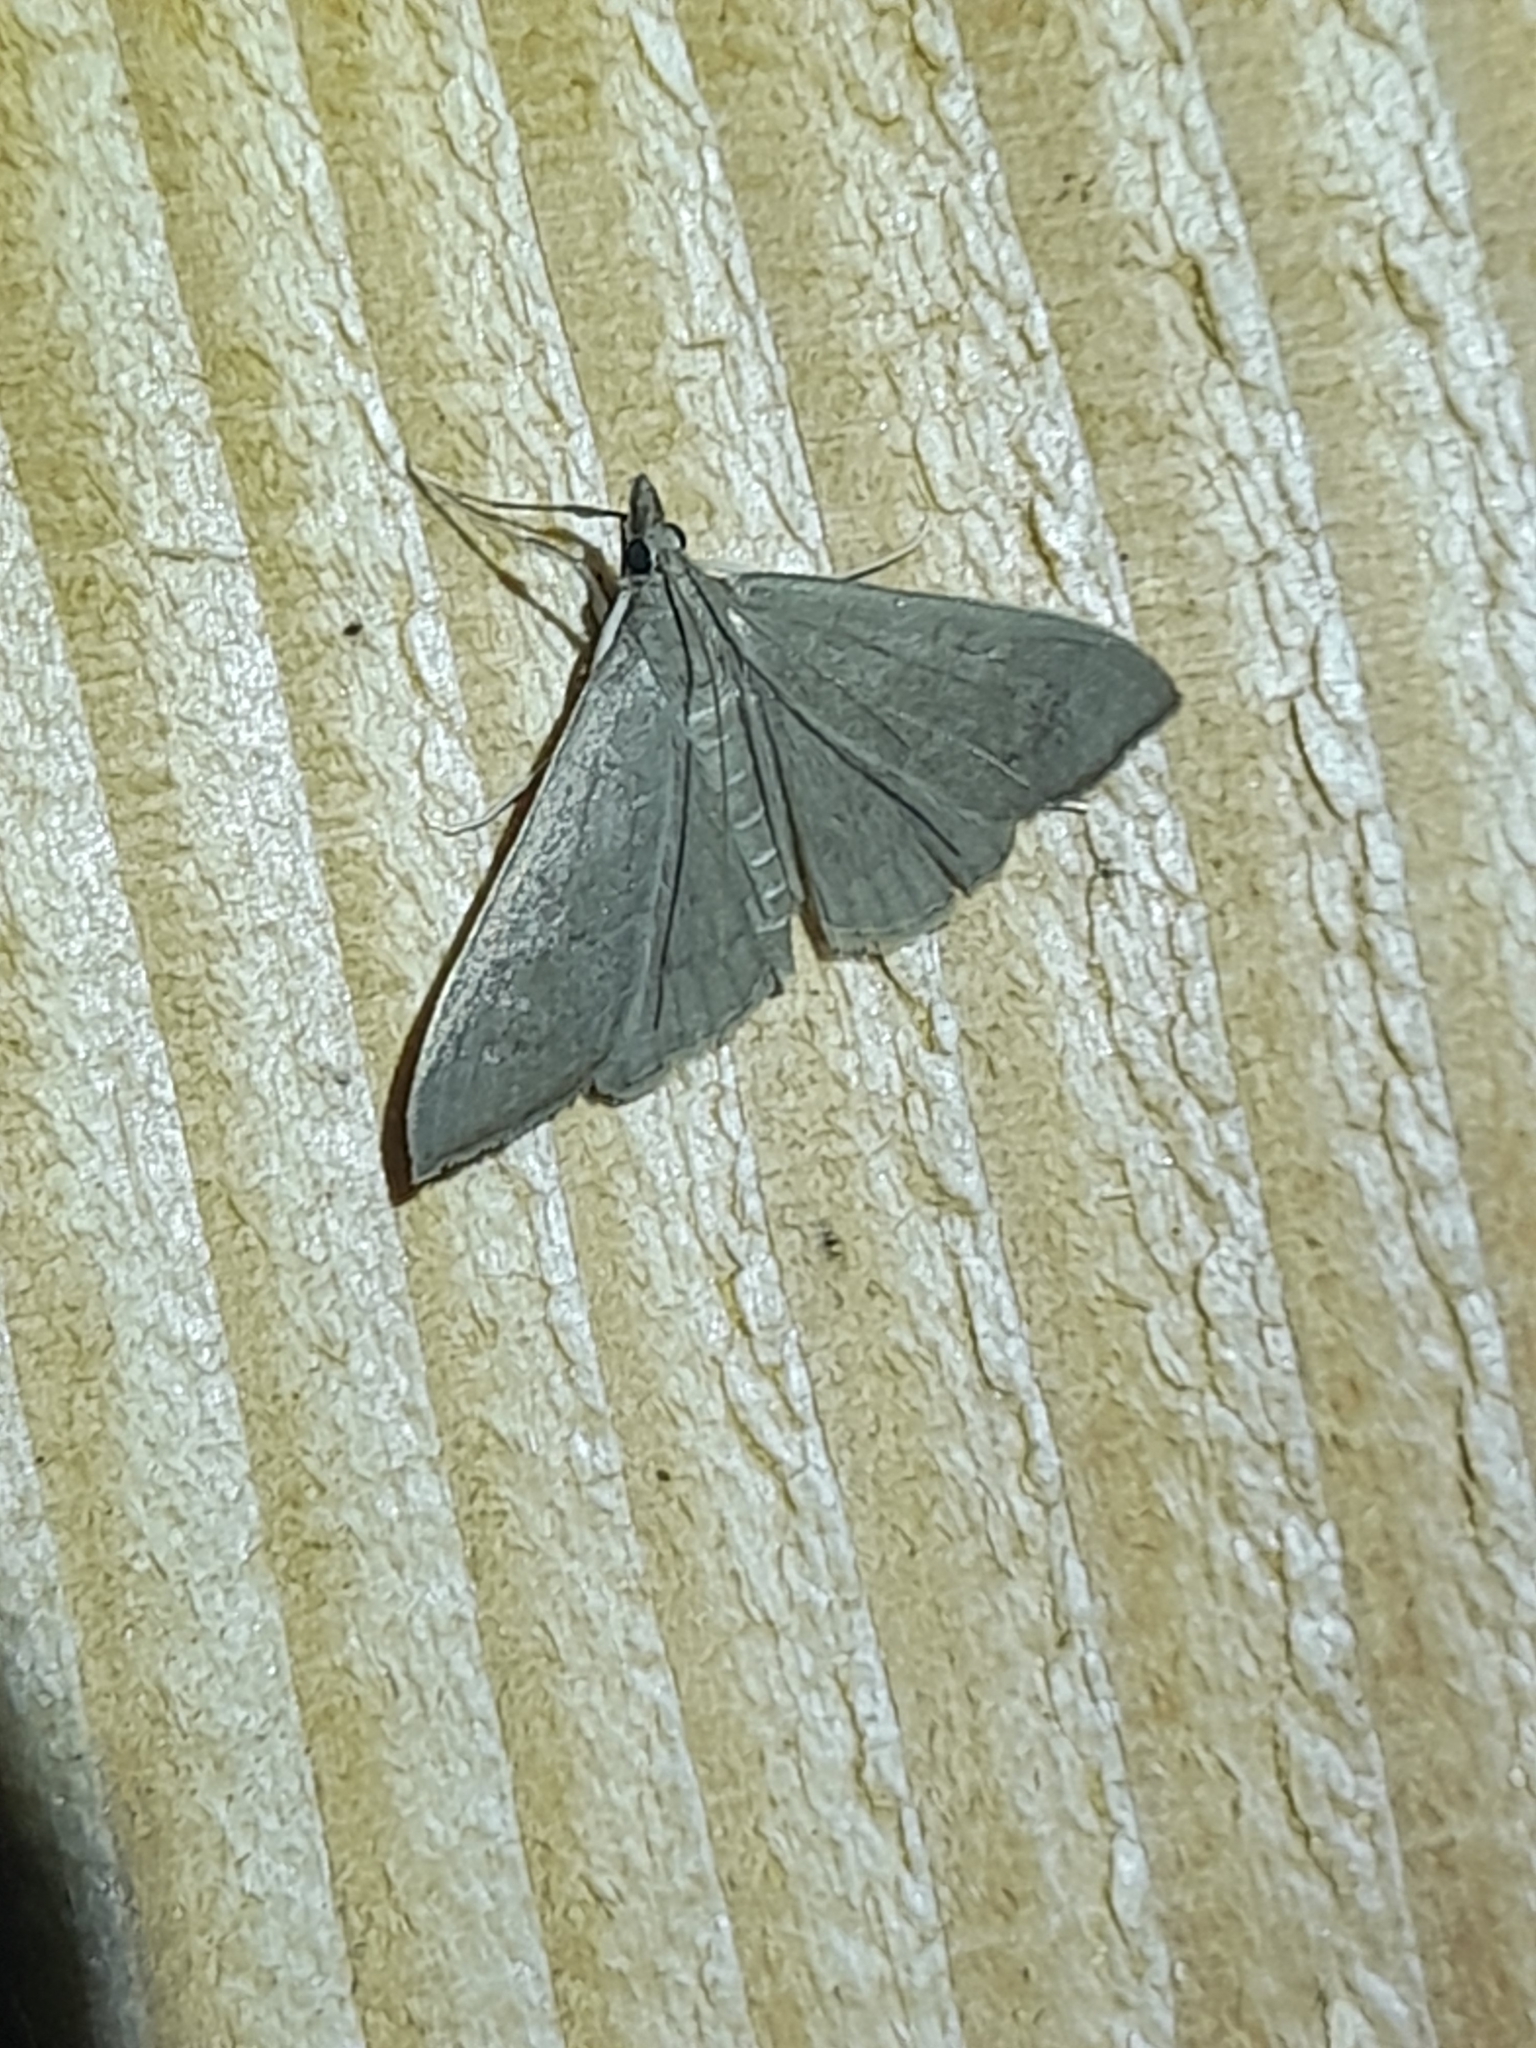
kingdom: Animalia
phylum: Arthropoda
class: Insecta
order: Lepidoptera
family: Crambidae
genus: Mecyna
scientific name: Mecyna asinalis
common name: Coastal pearl
